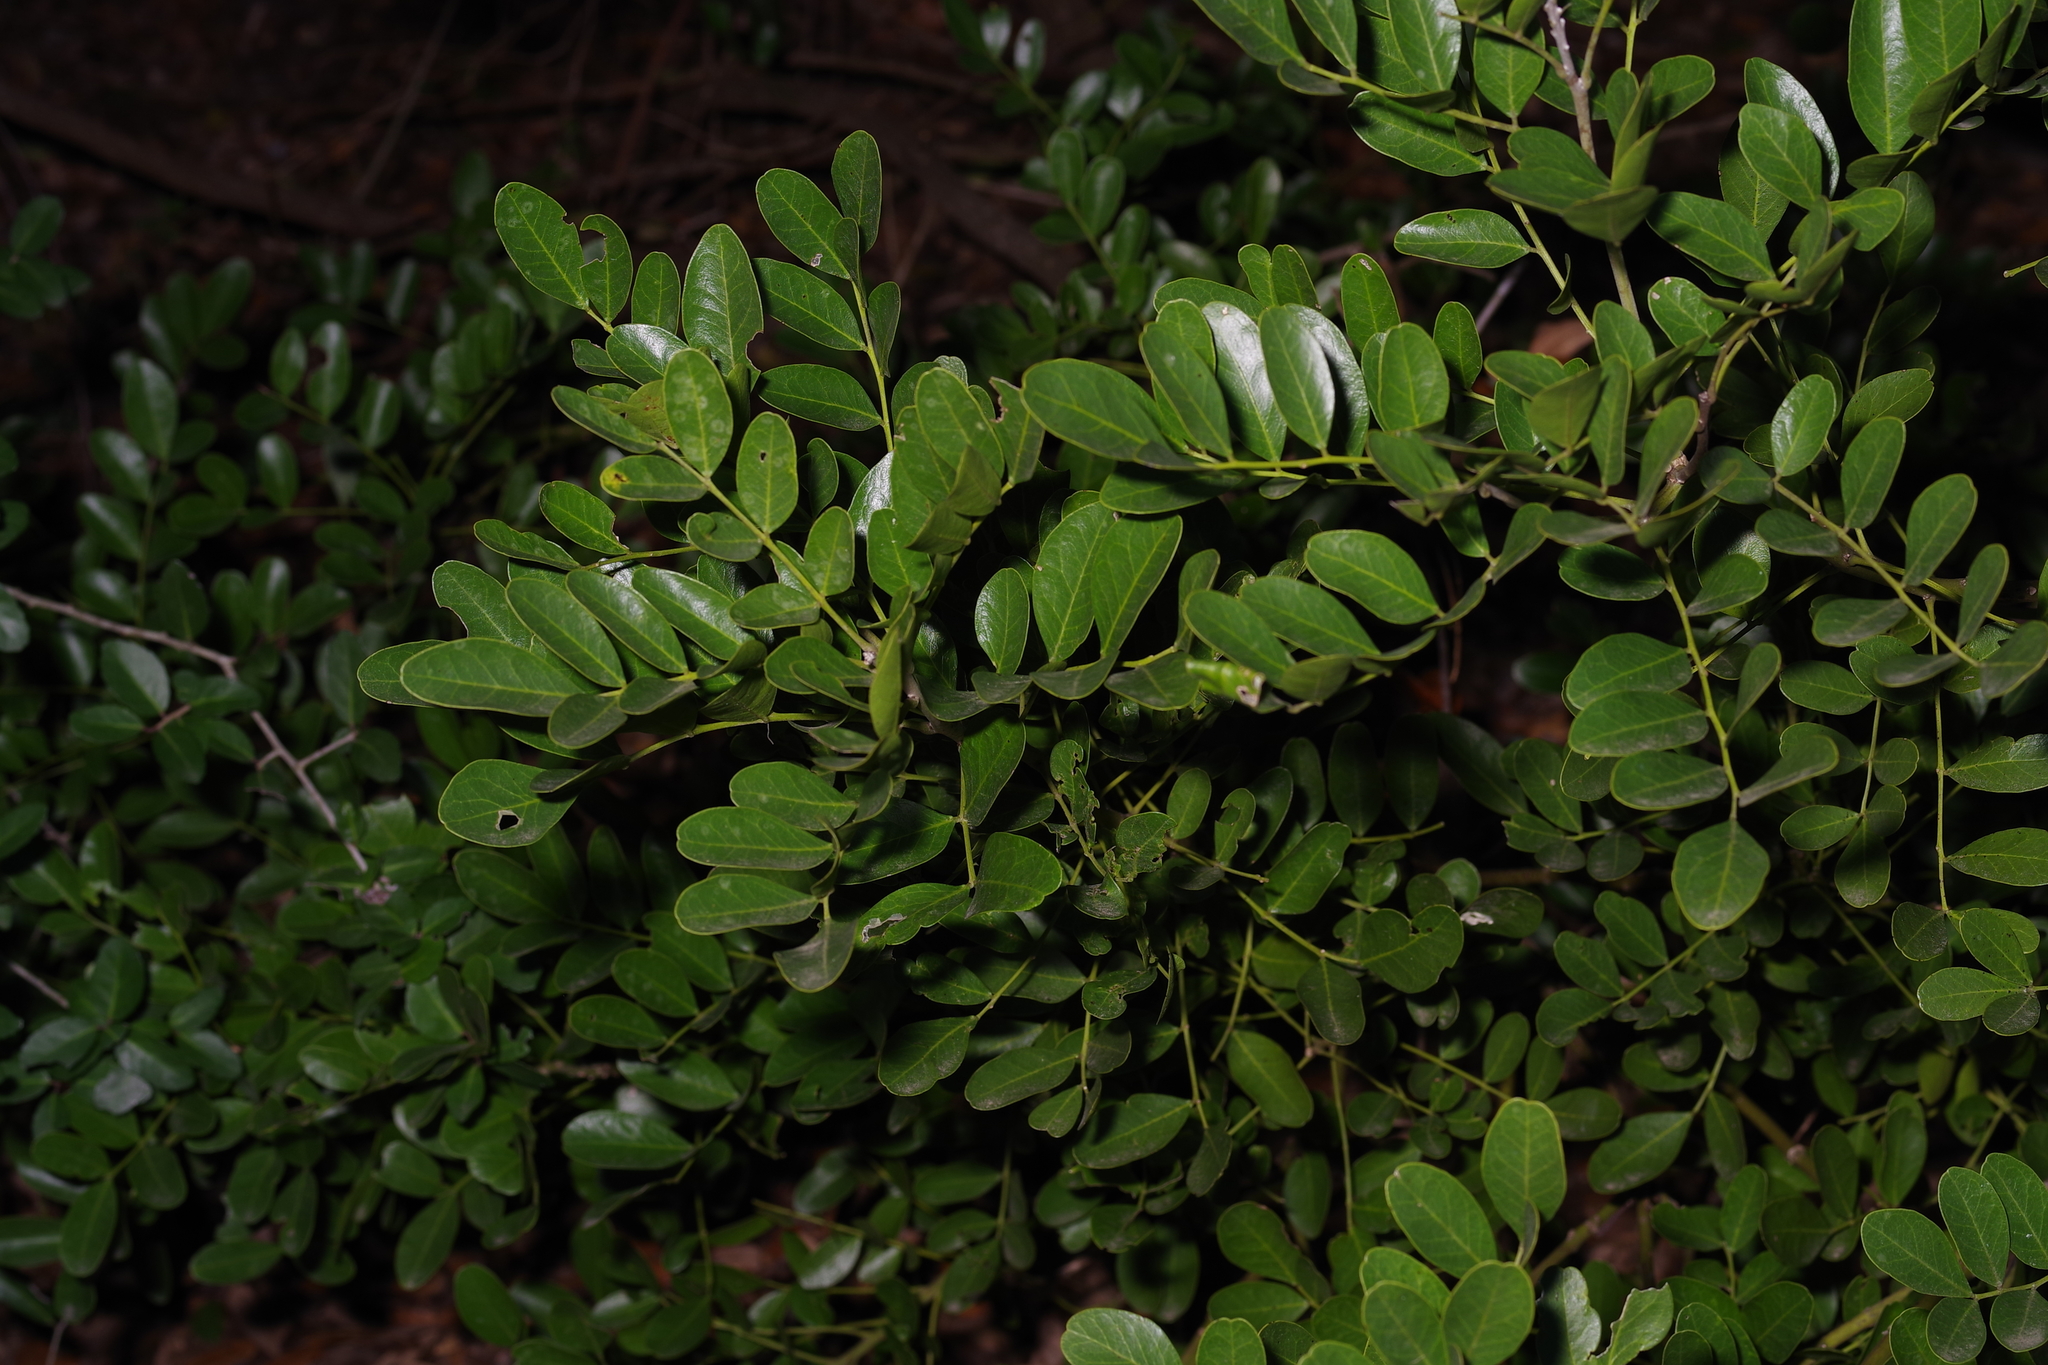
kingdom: Plantae
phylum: Tracheophyta
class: Magnoliopsida
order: Fabales
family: Fabaceae
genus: Dermatophyllum
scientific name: Dermatophyllum secundiflorum
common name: Texas-mountain-laurel
